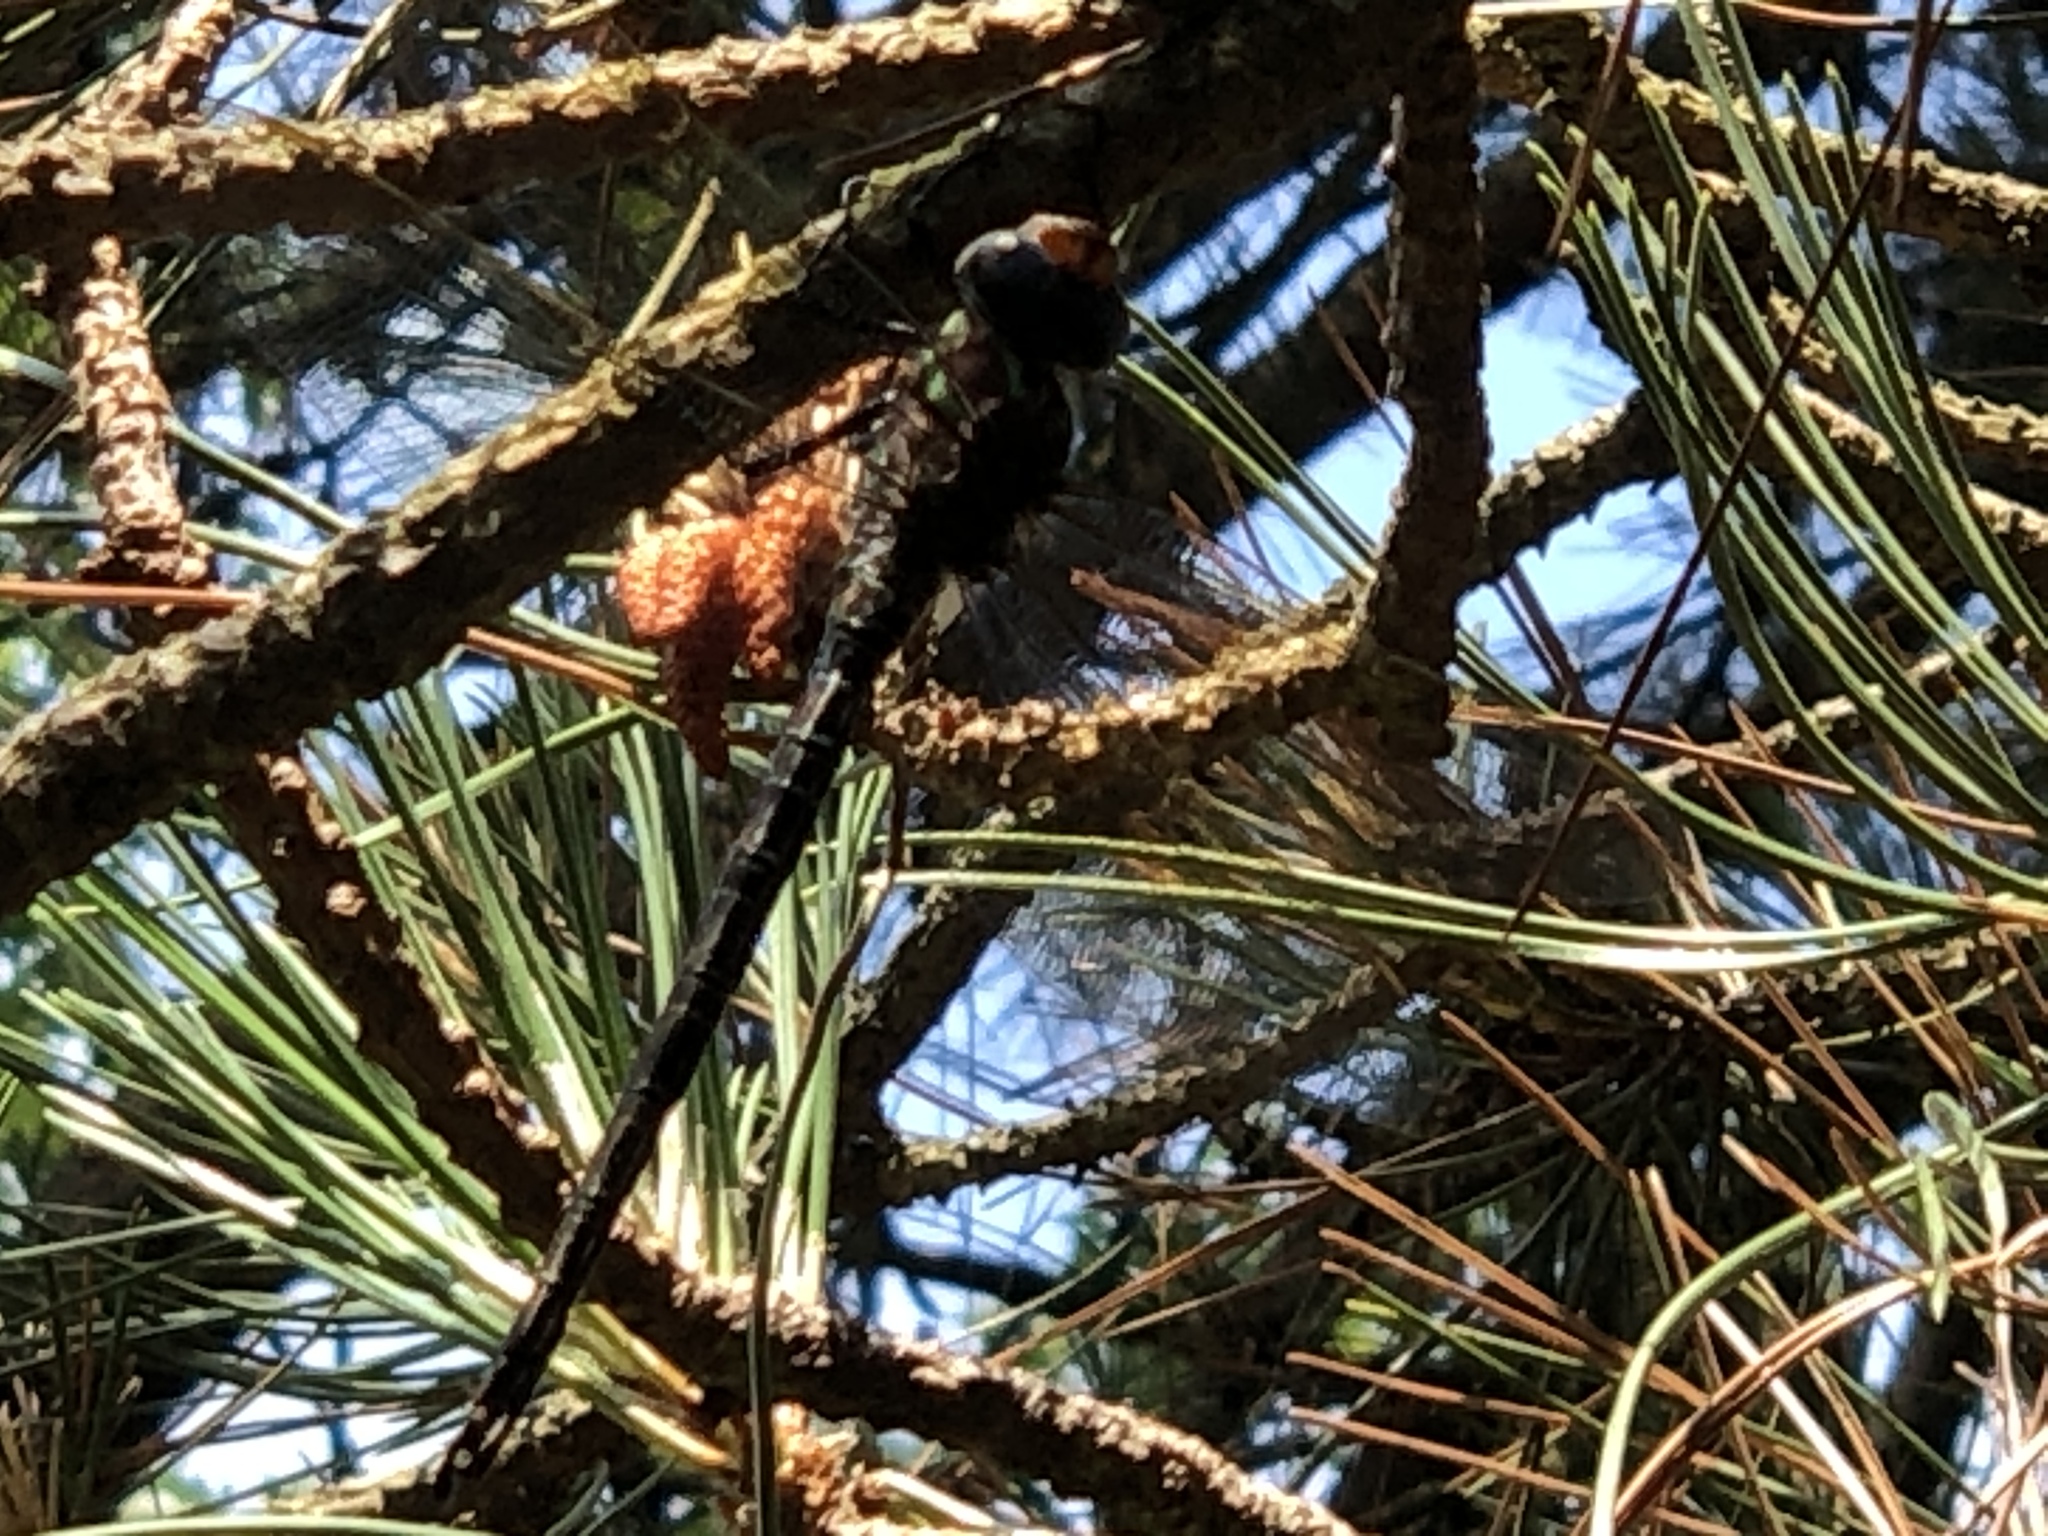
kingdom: Animalia
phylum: Arthropoda
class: Insecta
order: Odonata
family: Aeshnidae
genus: Epiaeschna
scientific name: Epiaeschna heros
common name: Swamp darner
